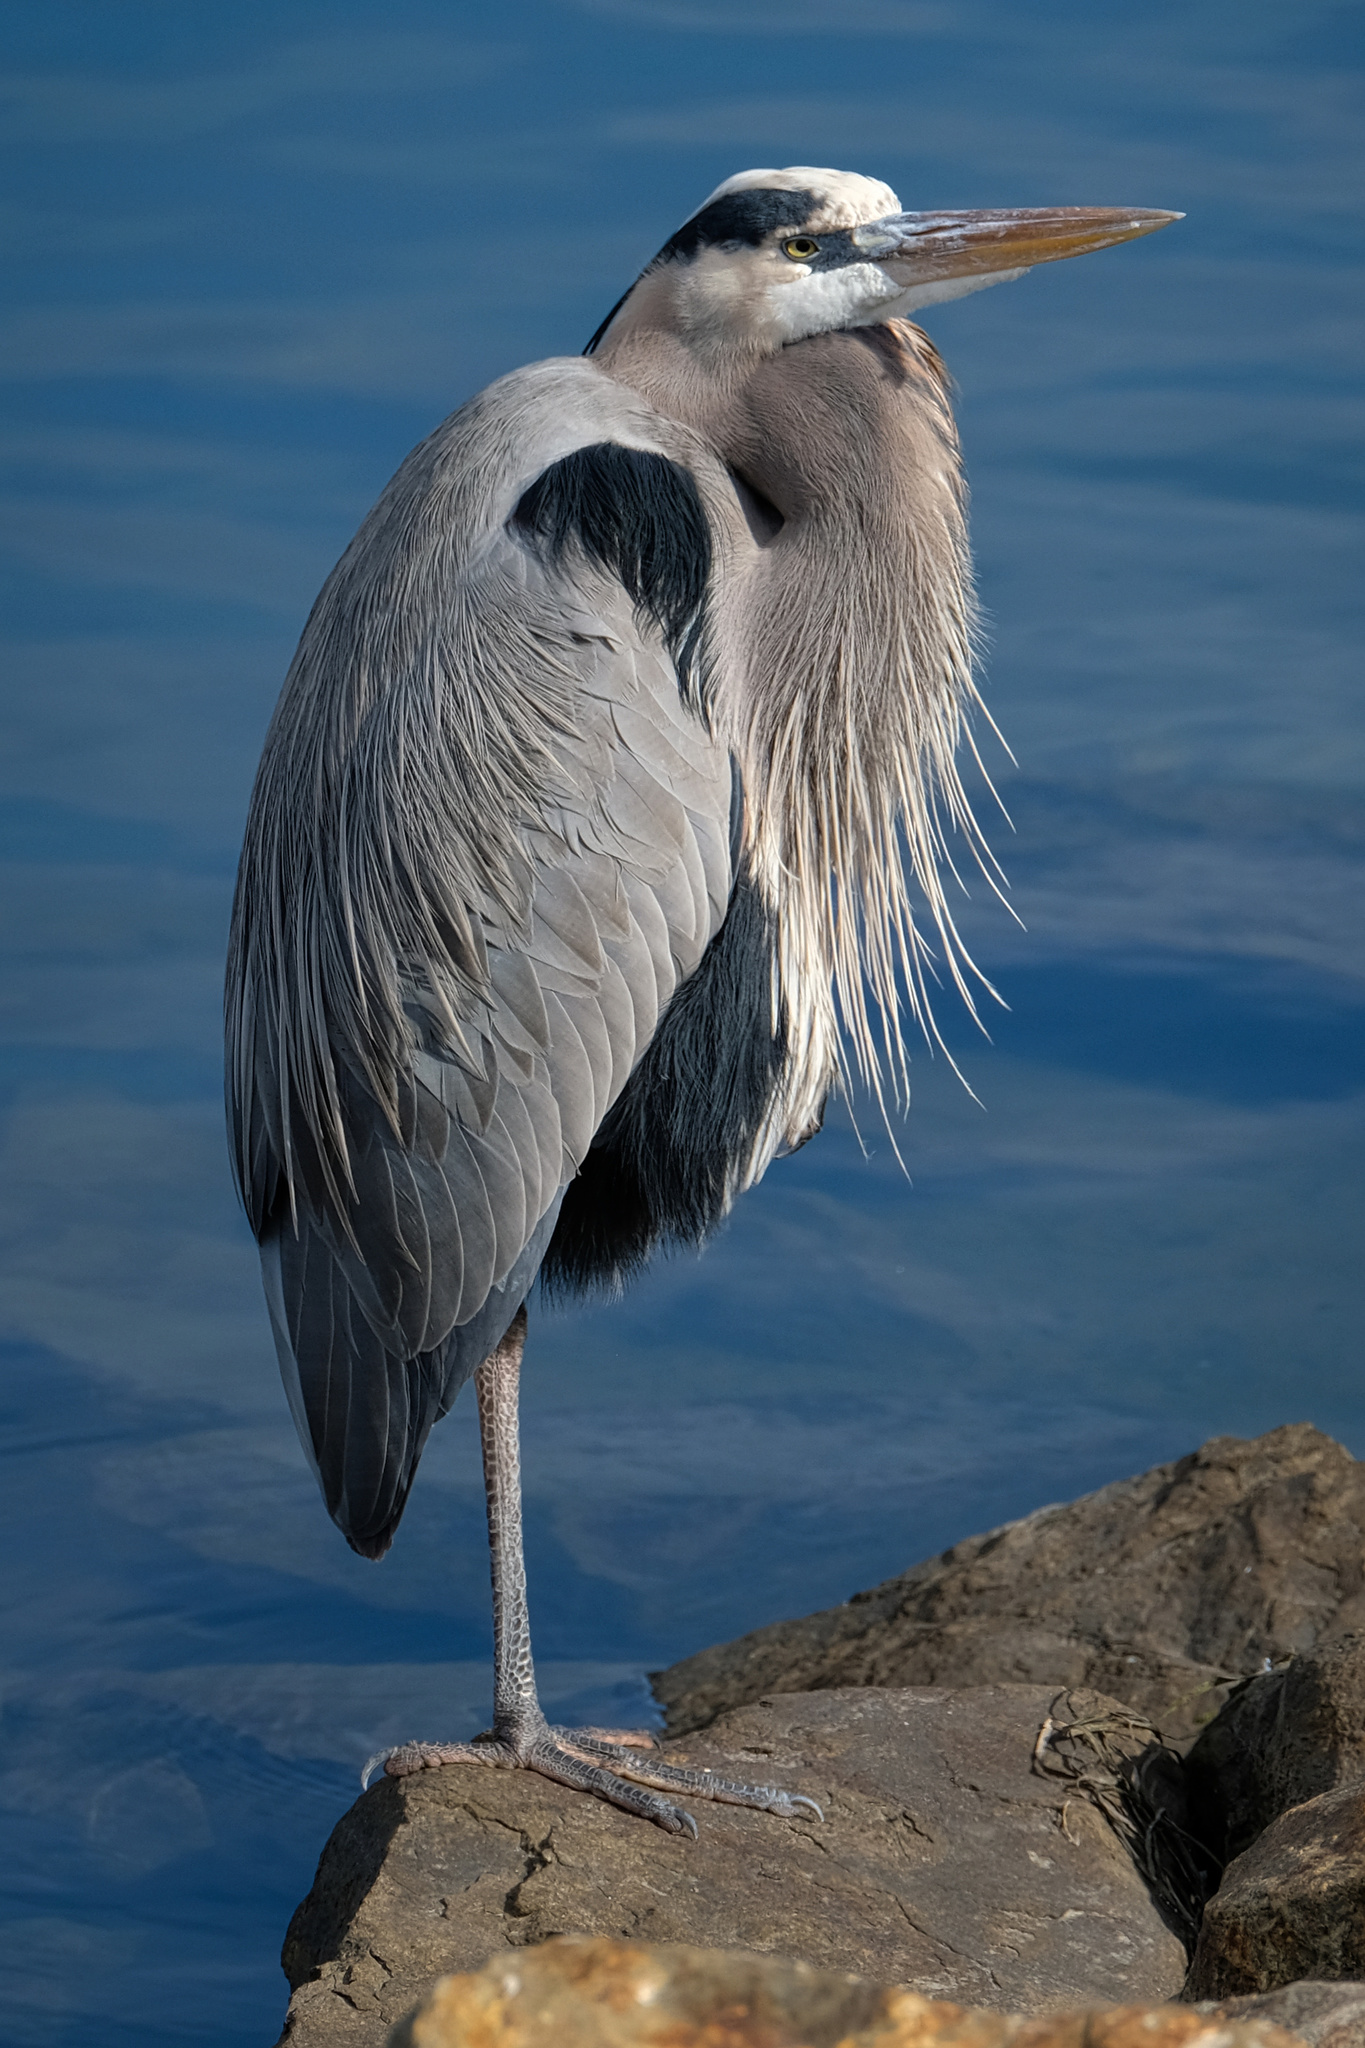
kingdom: Animalia
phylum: Chordata
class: Aves
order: Pelecaniformes
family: Ardeidae
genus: Ardea
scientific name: Ardea herodias
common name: Great blue heron
